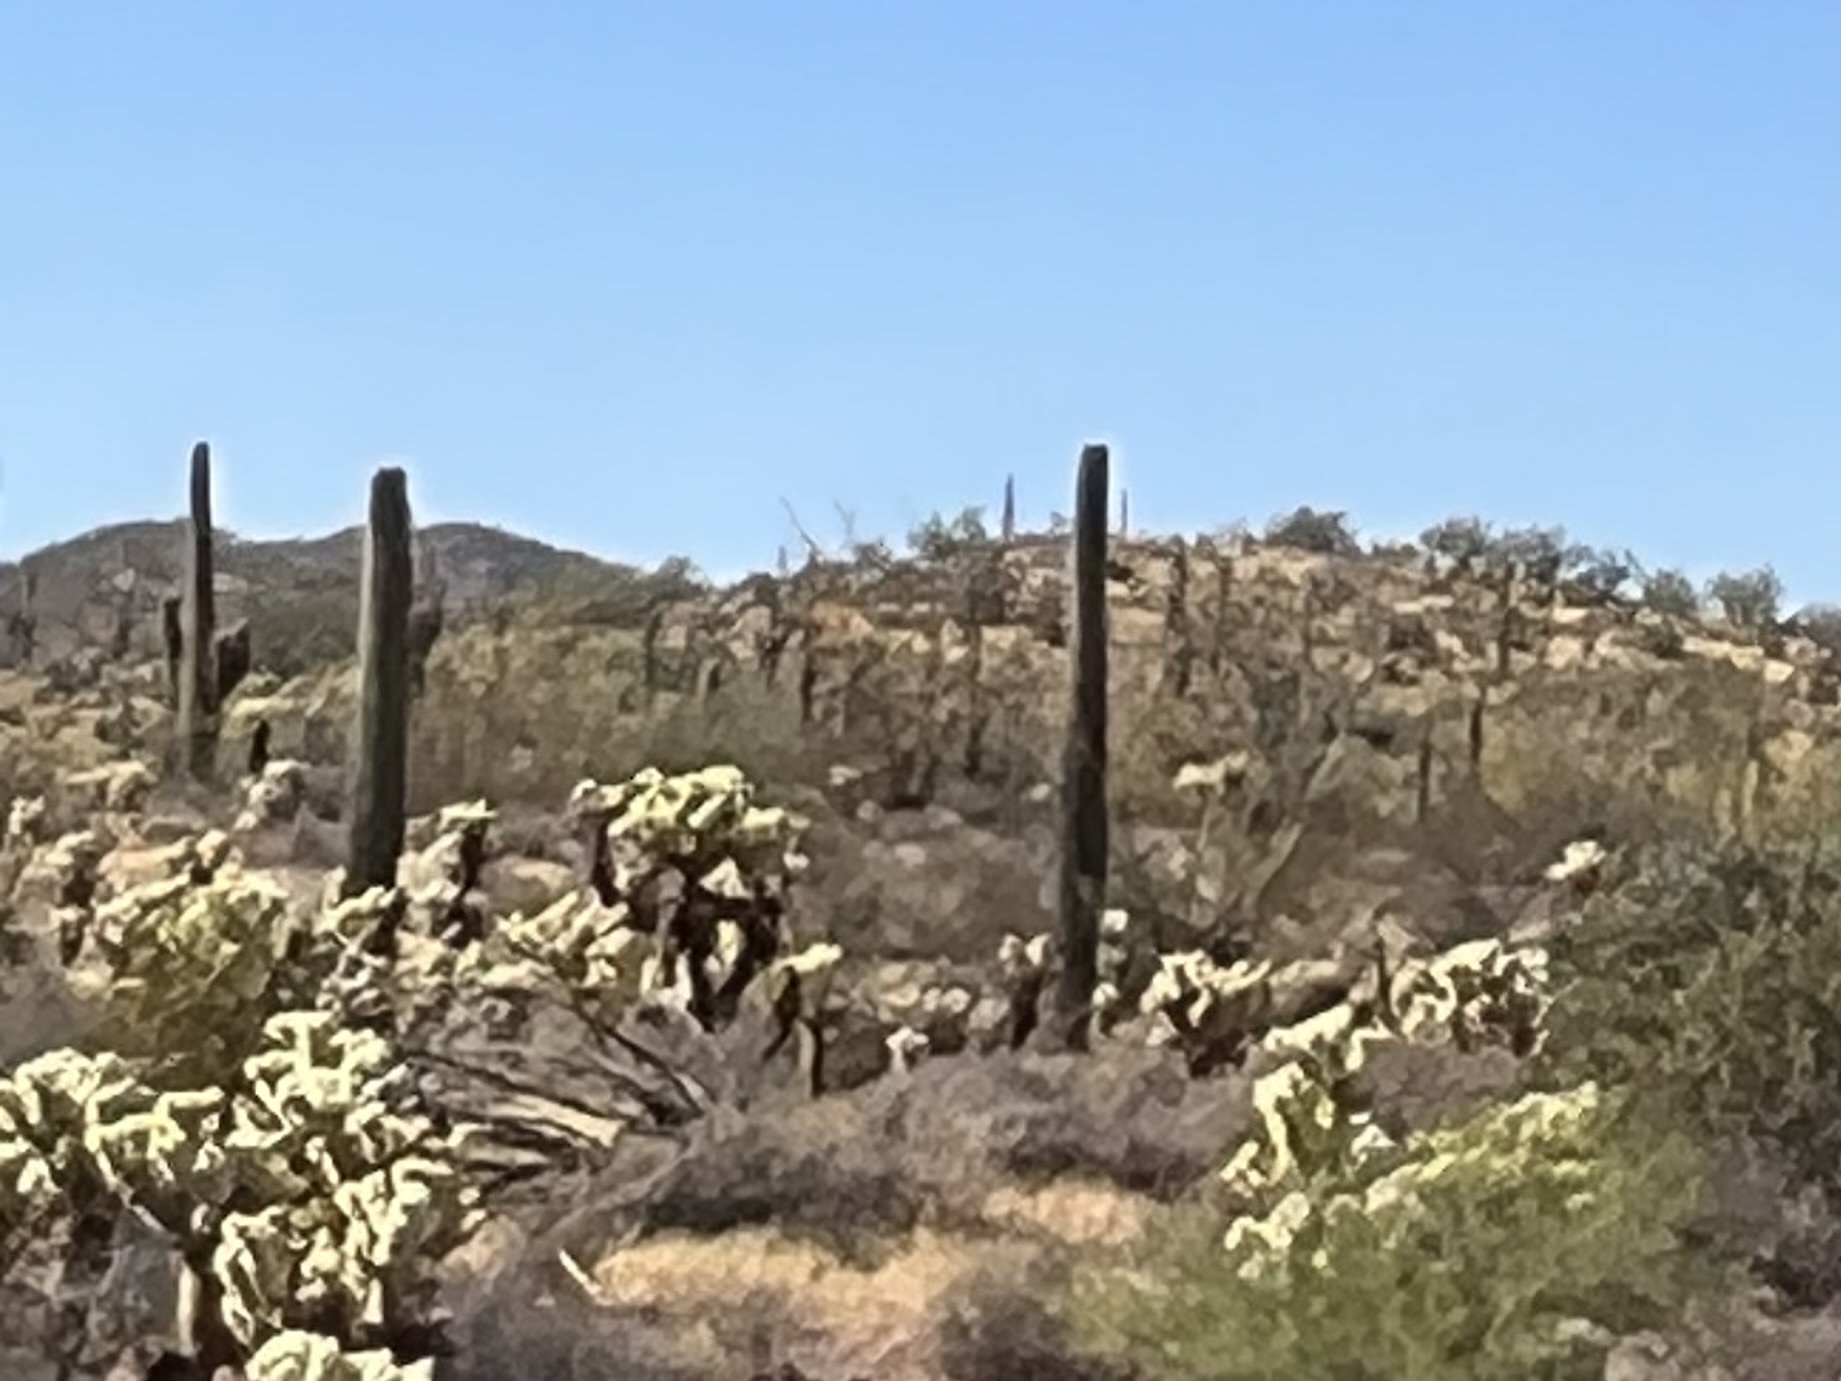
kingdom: Plantae
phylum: Tracheophyta
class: Magnoliopsida
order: Caryophyllales
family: Cactaceae
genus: Carnegiea
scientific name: Carnegiea gigantea
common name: Saguaro
